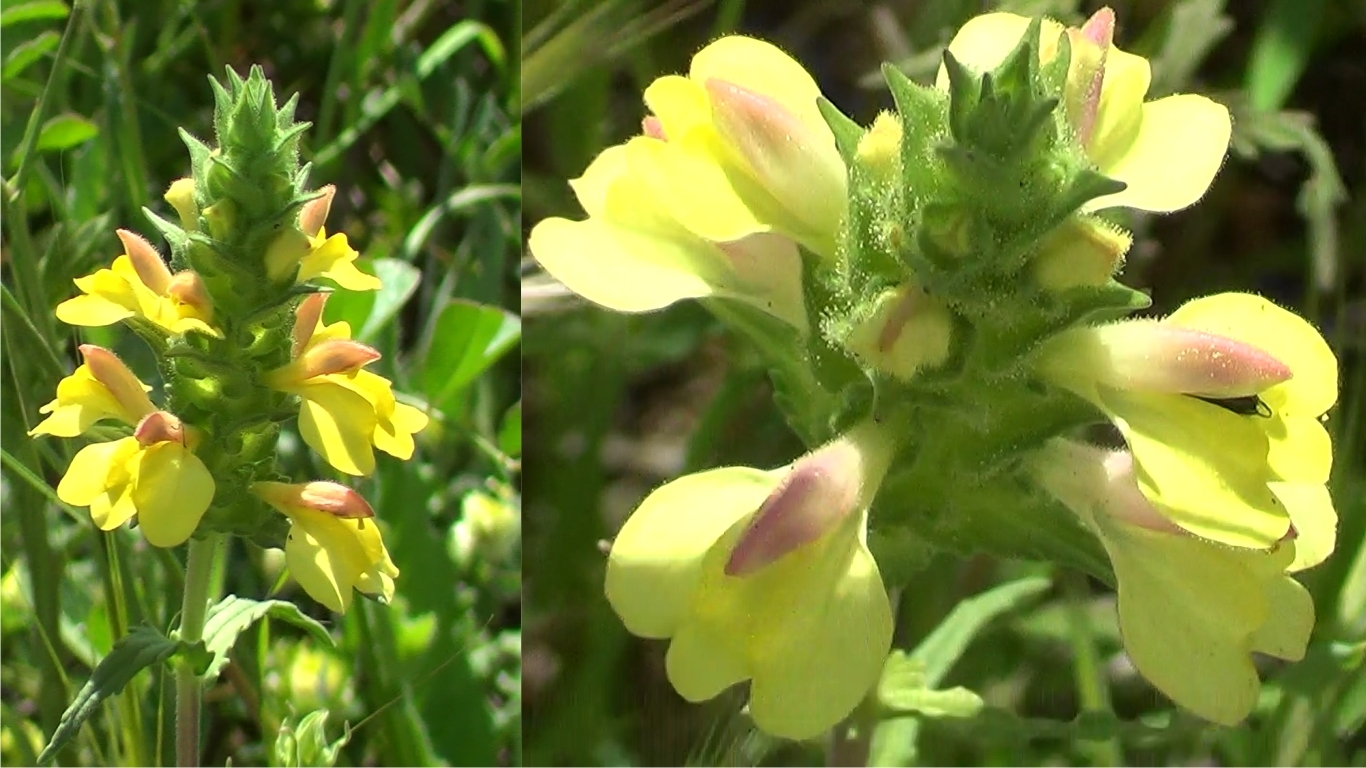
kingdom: Plantae
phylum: Tracheophyta
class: Magnoliopsida
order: Lamiales
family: Orobanchaceae
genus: Bellardia
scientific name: Bellardia trixago
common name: Mediterranean lineseed
